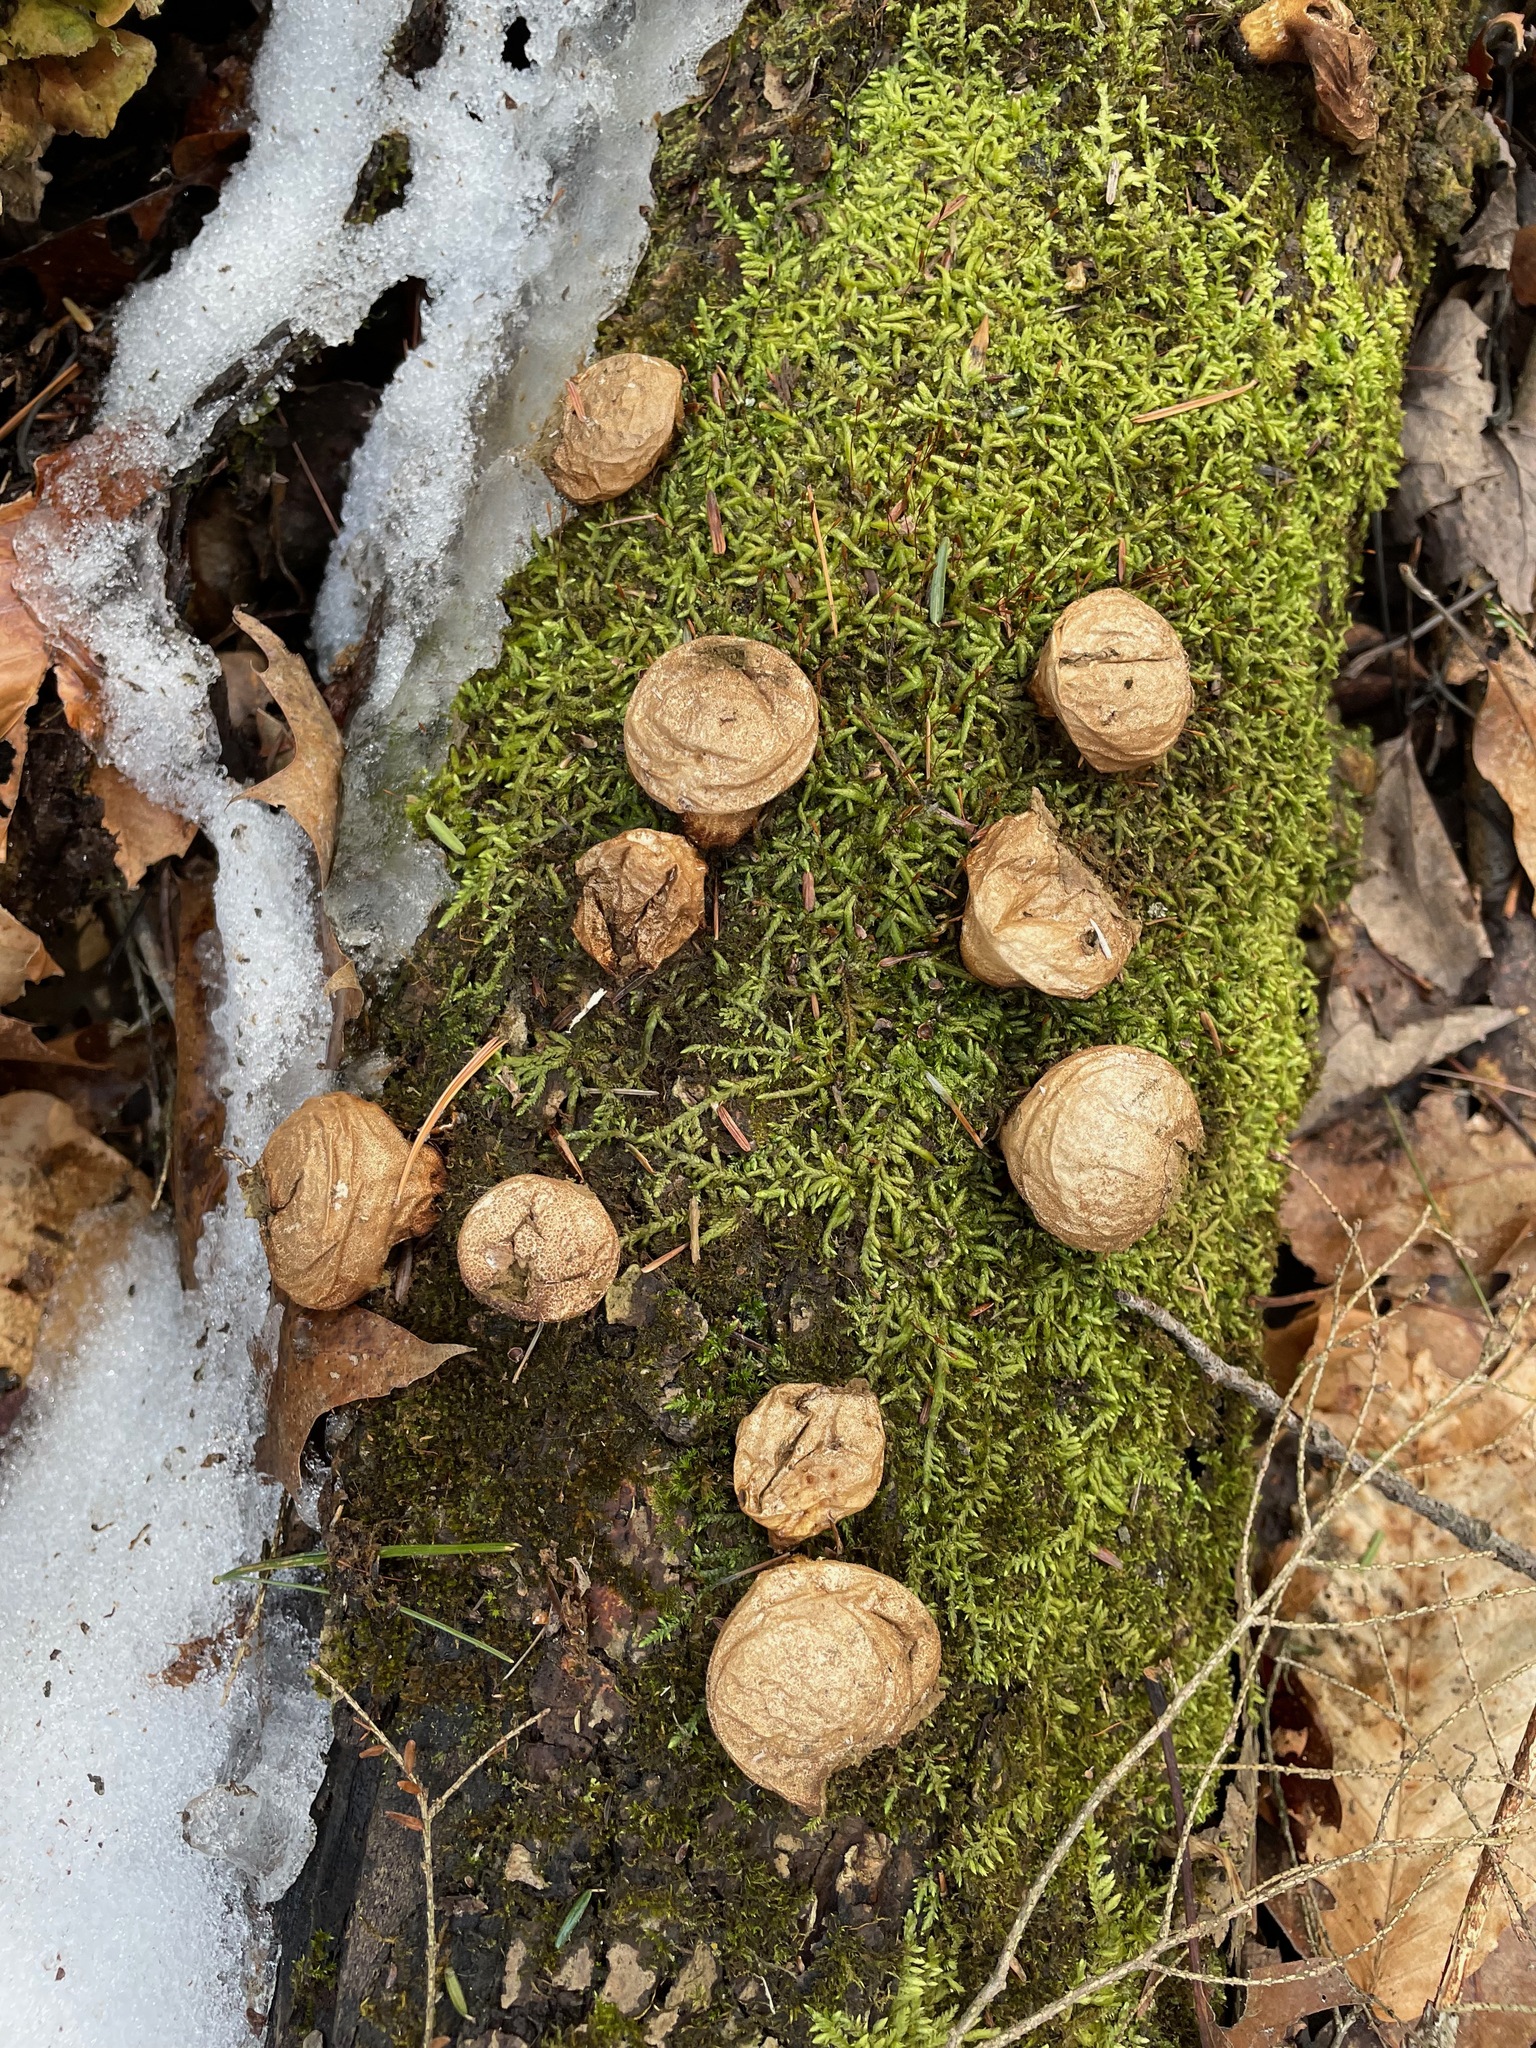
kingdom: Fungi
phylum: Basidiomycota
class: Agaricomycetes
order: Agaricales
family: Lycoperdaceae
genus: Apioperdon
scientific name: Apioperdon pyriforme
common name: Pear-shaped puffball
